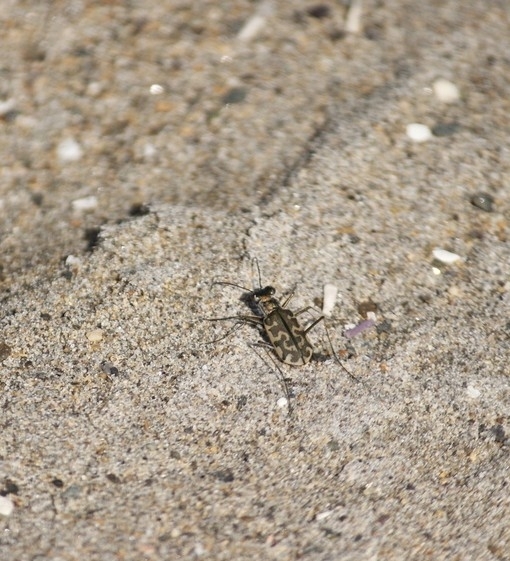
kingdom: Animalia
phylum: Arthropoda
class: Insecta
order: Coleoptera
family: Carabidae
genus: Cicindela
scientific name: Cicindela trifasciata
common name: Mudflat tiger beetle
